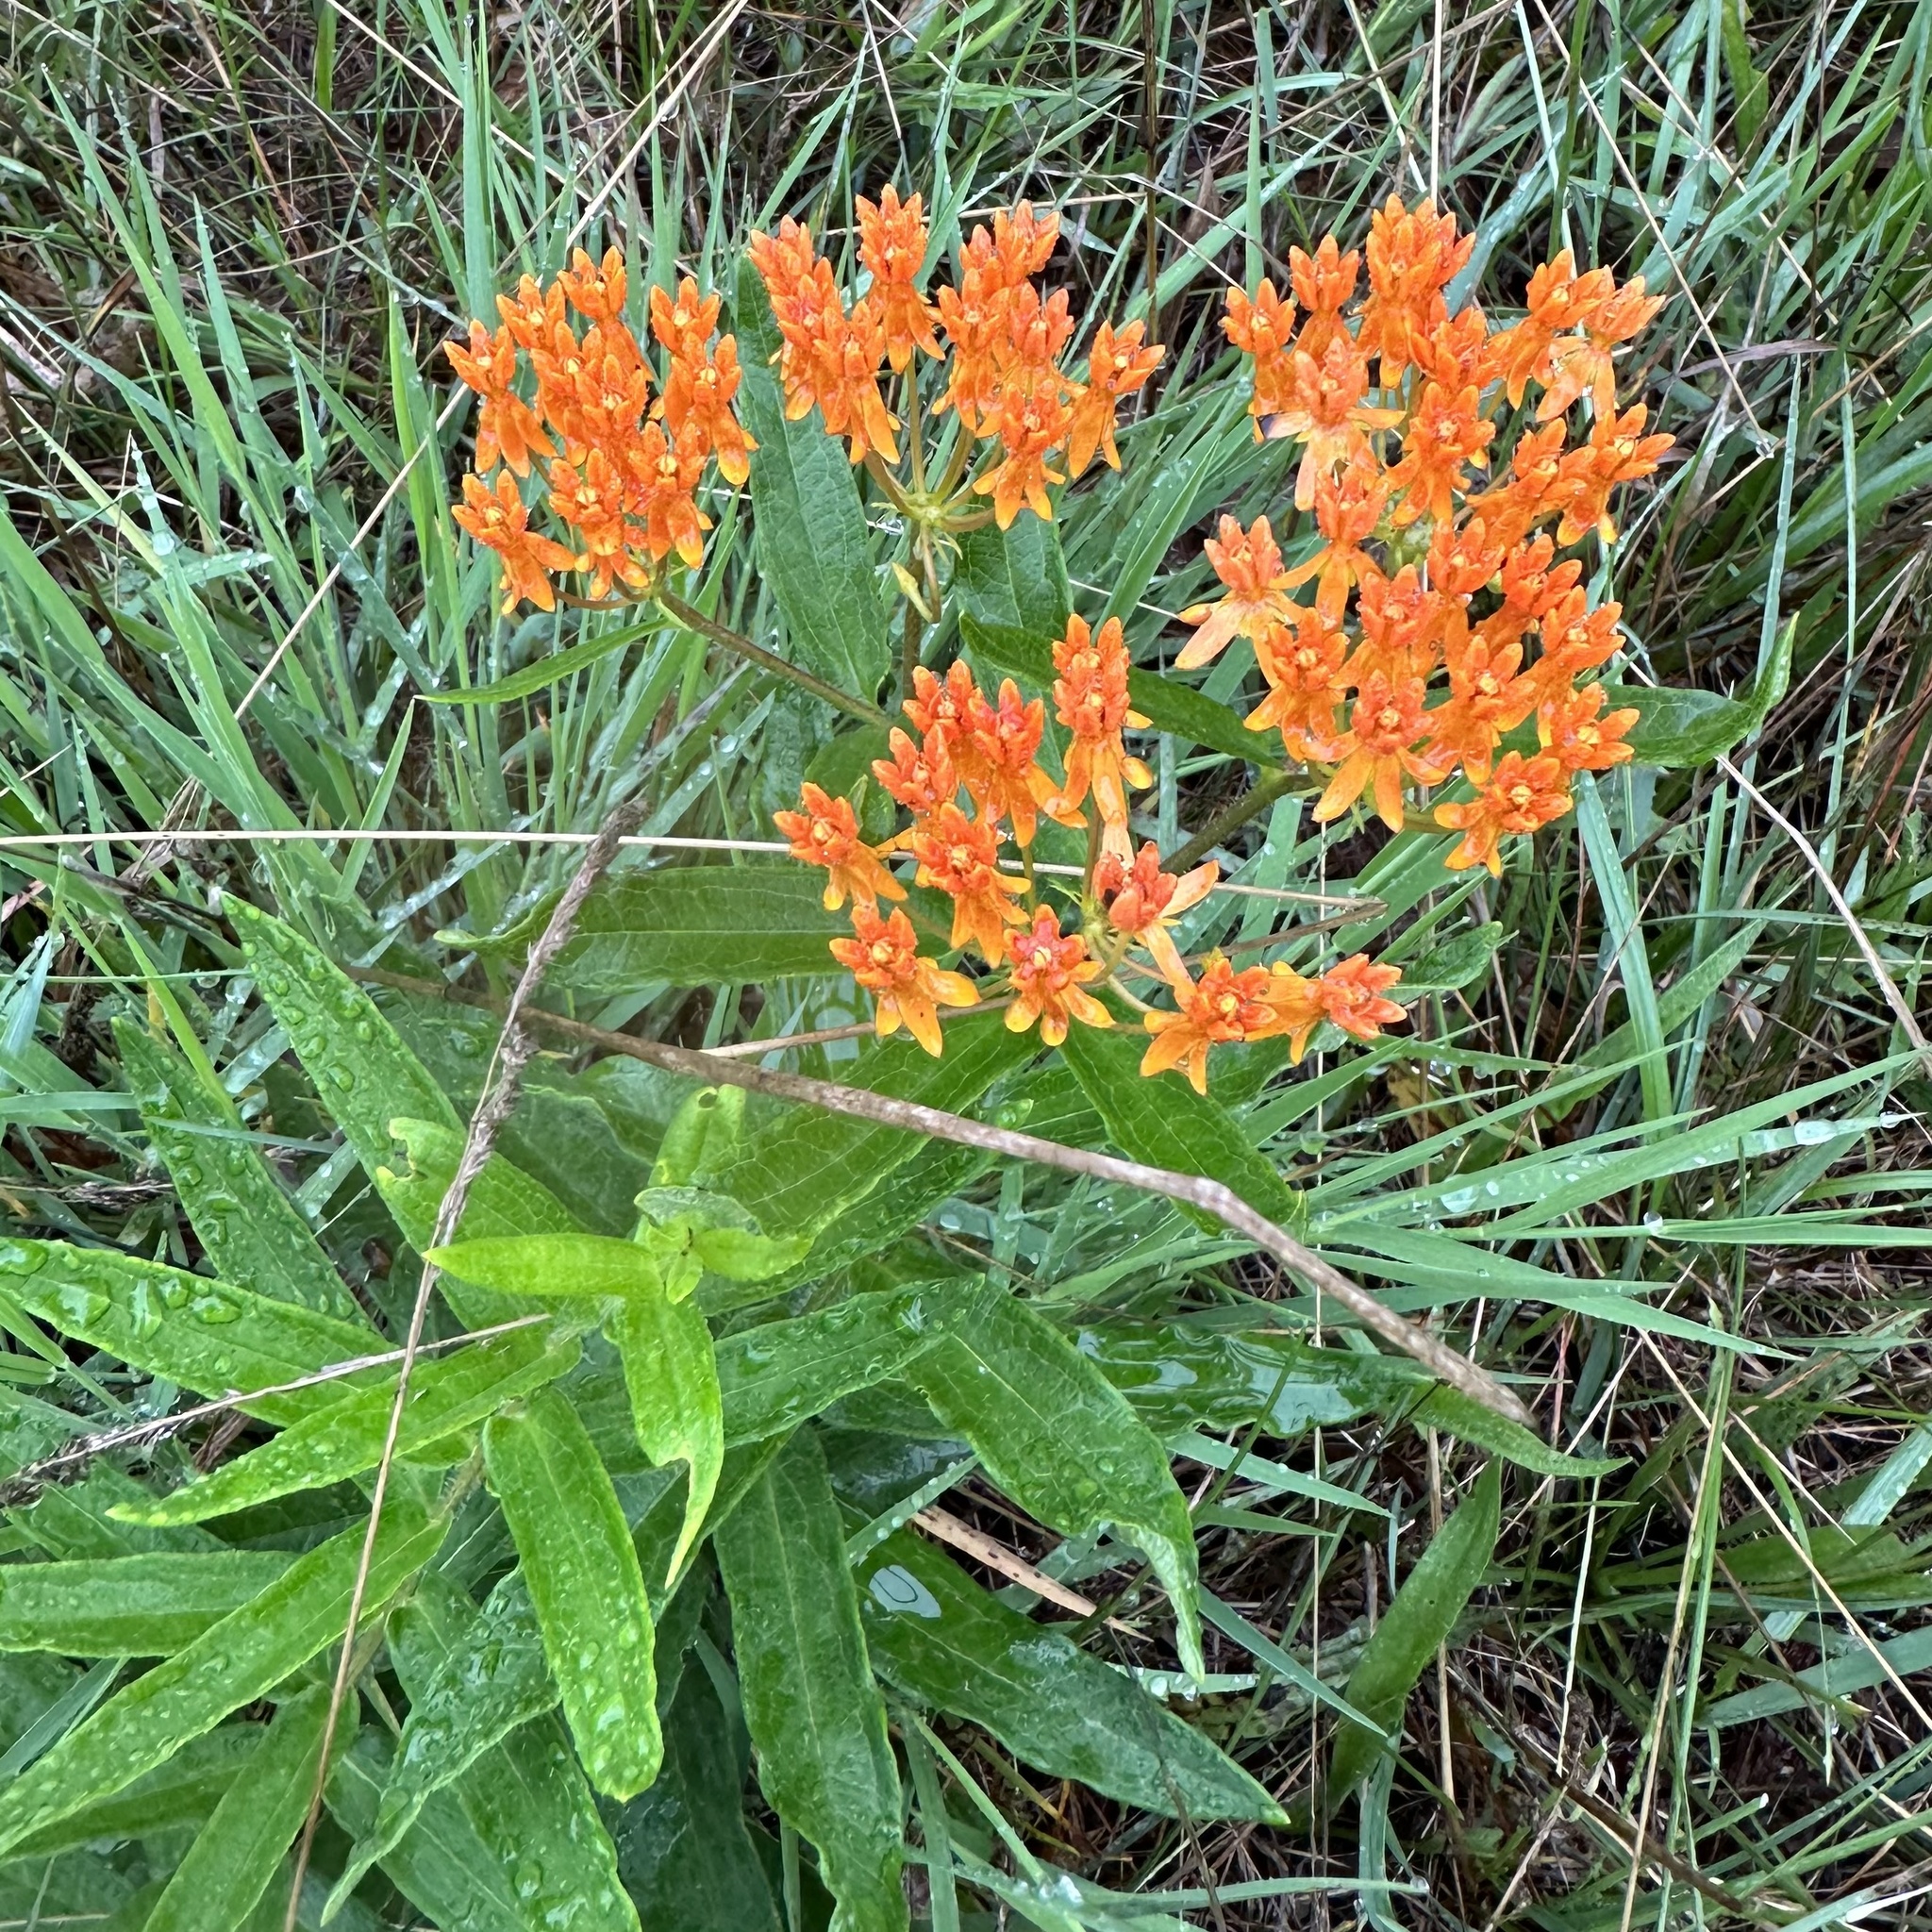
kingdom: Plantae
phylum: Tracheophyta
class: Magnoliopsida
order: Gentianales
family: Apocynaceae
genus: Asclepias
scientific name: Asclepias tuberosa
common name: Butterfly milkweed
